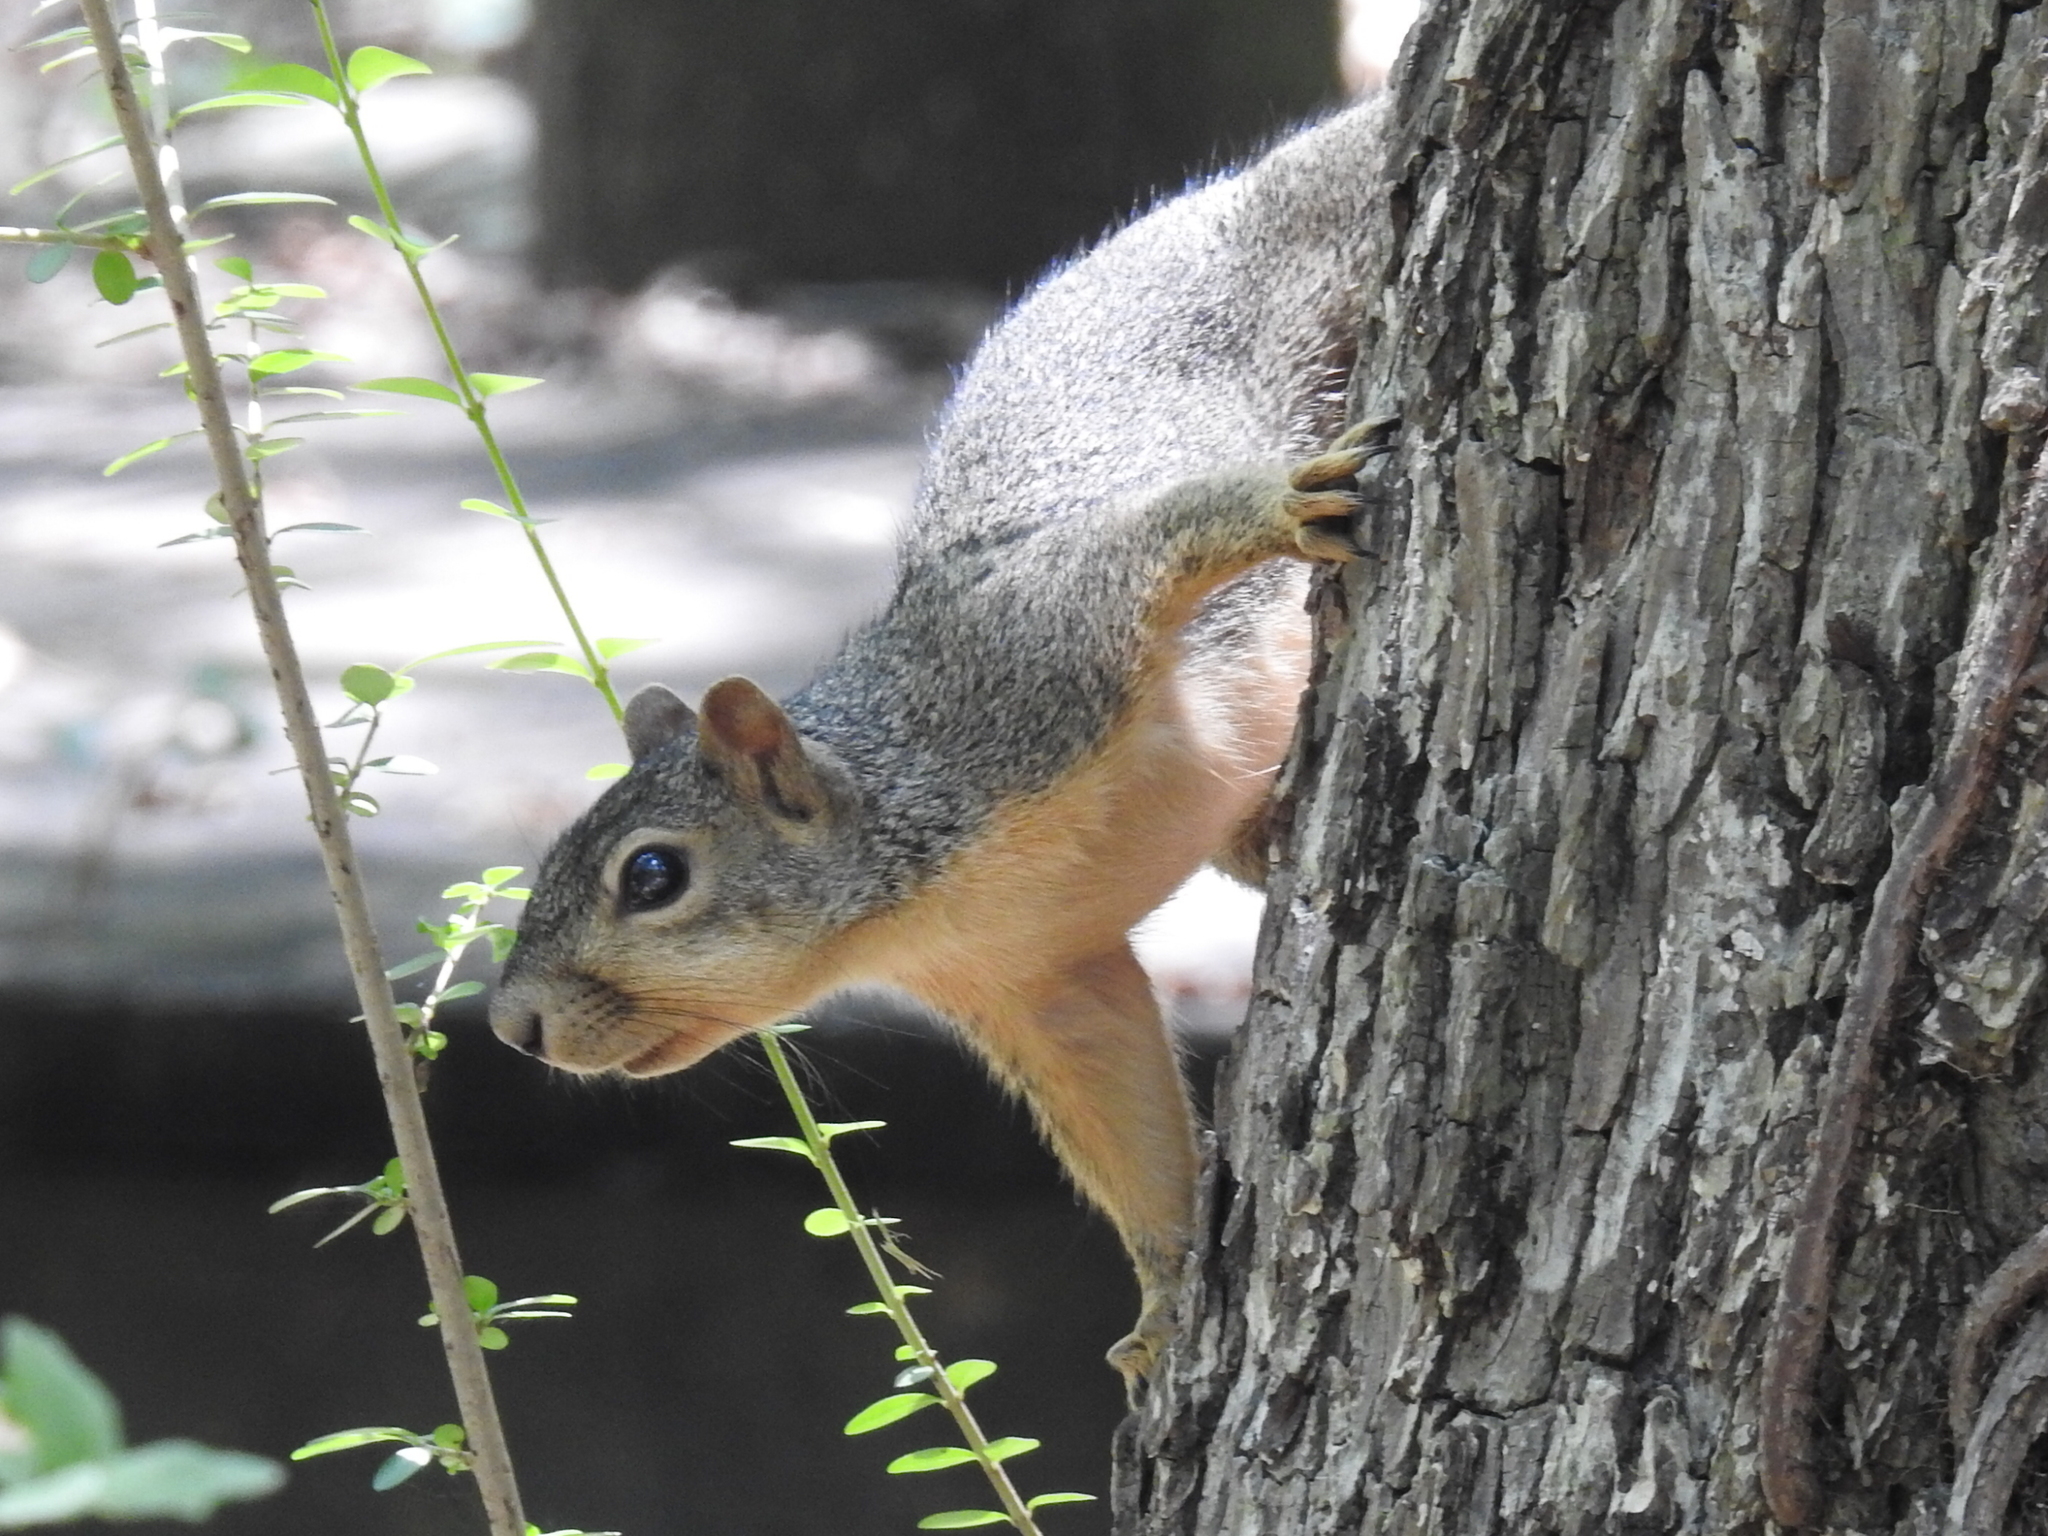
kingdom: Animalia
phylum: Chordata
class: Mammalia
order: Rodentia
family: Sciuridae
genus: Sciurus
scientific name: Sciurus niger
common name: Fox squirrel
